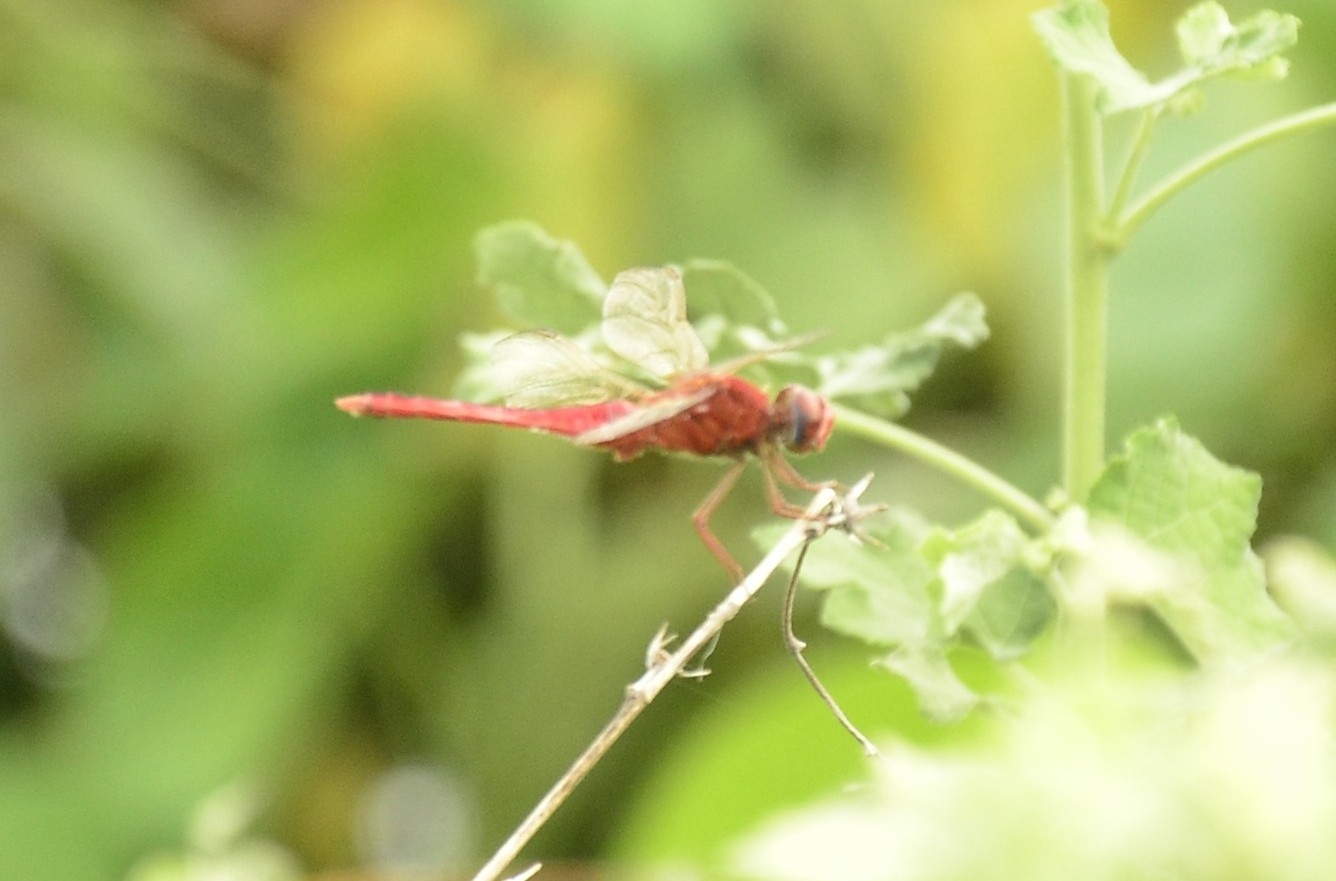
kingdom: Animalia
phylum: Arthropoda
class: Insecta
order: Odonata
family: Libellulidae
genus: Crocothemis
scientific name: Crocothemis servilia
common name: Scarlet skimmer
